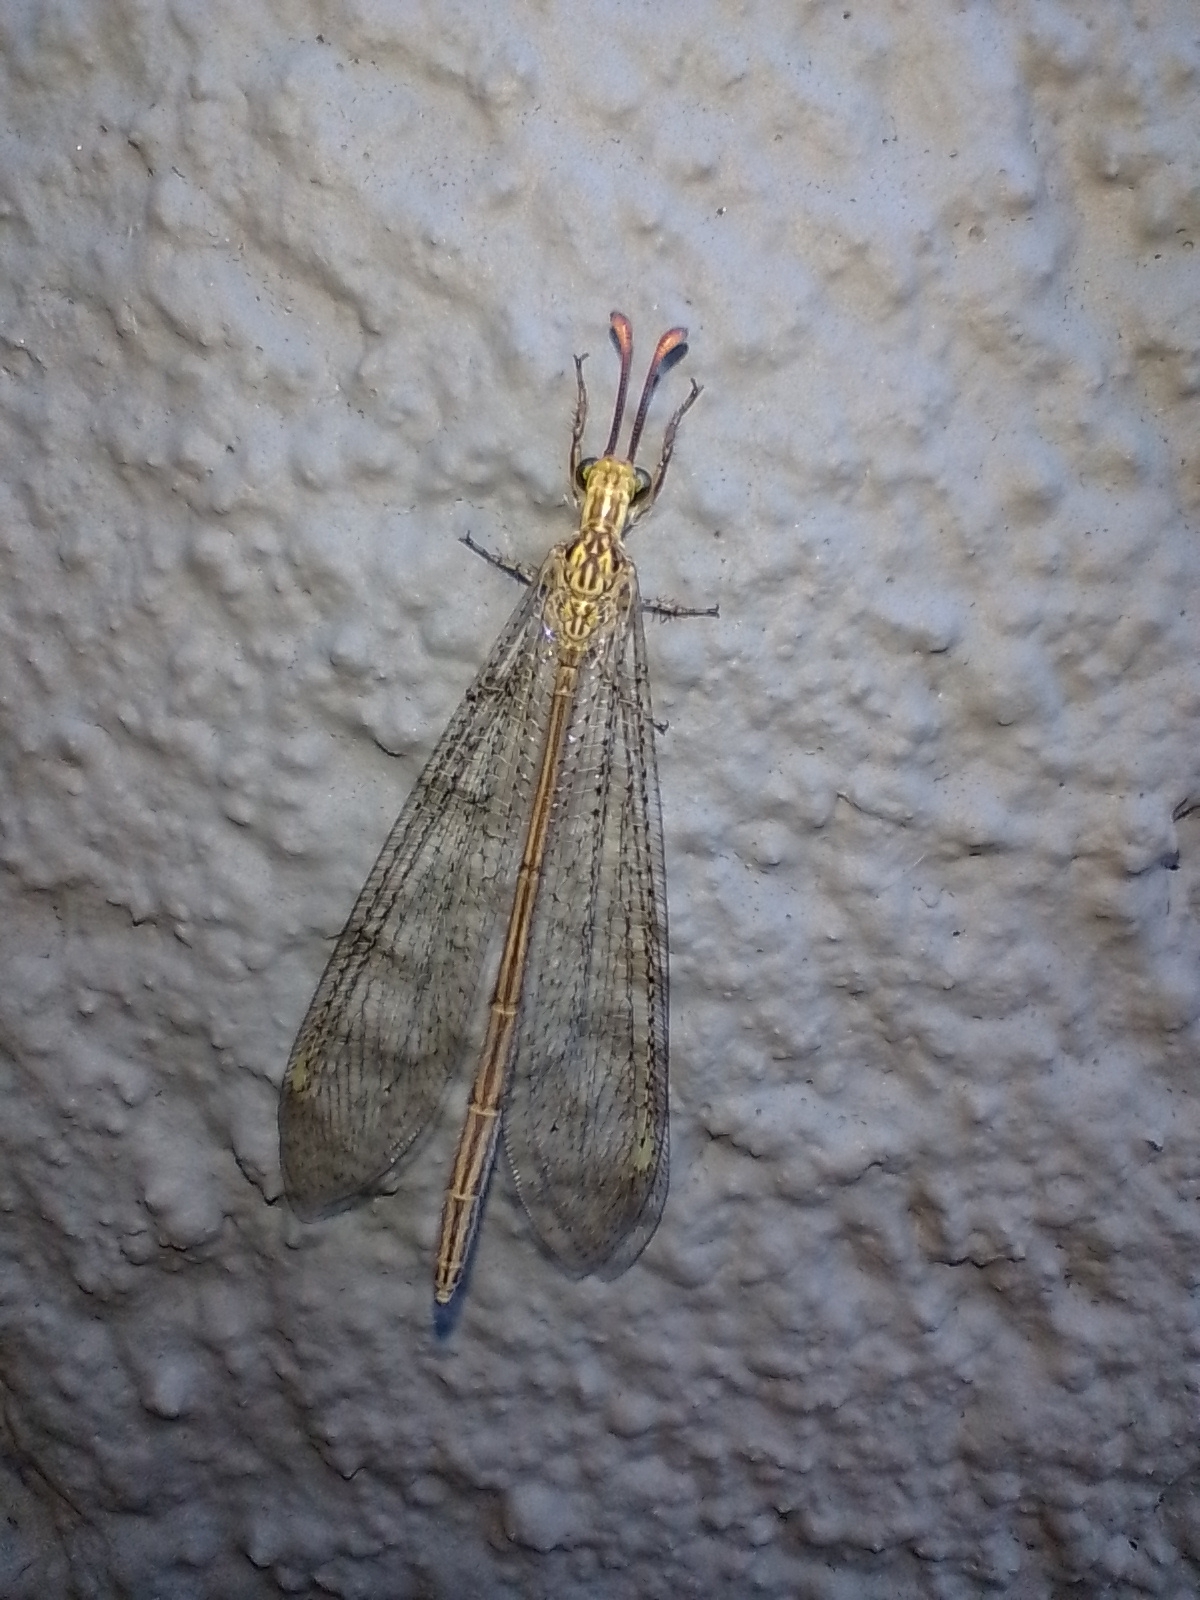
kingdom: Animalia
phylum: Arthropoda
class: Insecta
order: Neuroptera
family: Myrmeleontidae
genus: Argentoleon
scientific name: Argentoleon irrigatus
